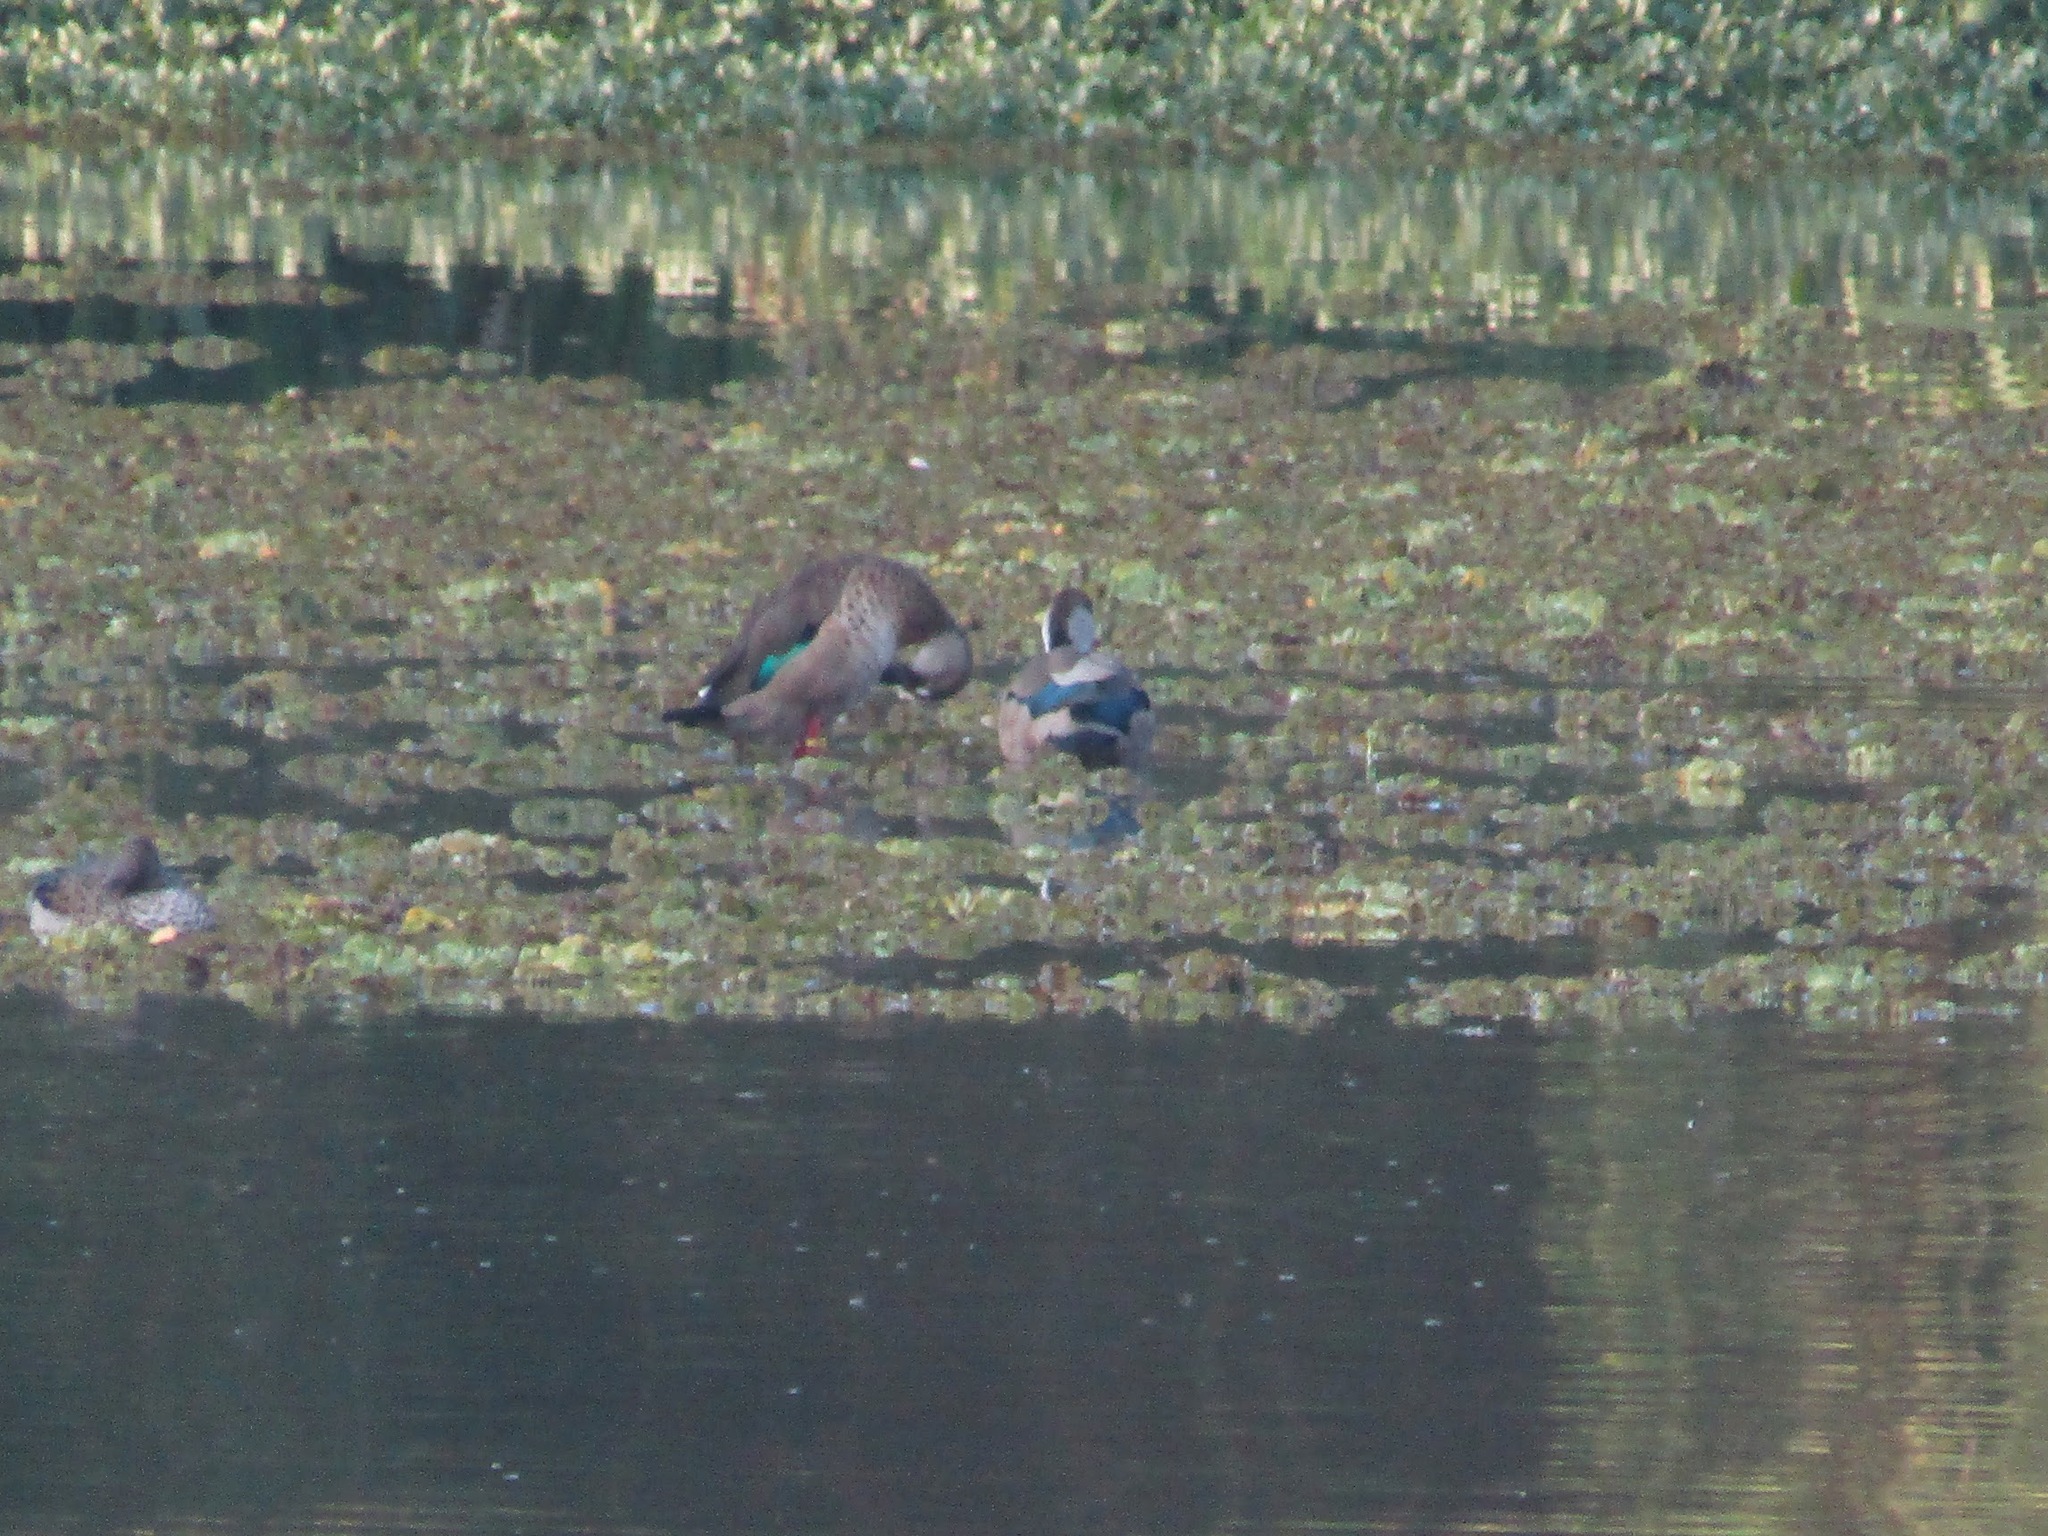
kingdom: Animalia
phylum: Chordata
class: Aves
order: Anseriformes
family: Anatidae
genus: Amazonetta
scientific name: Amazonetta brasiliensis
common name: Brazilian teal
